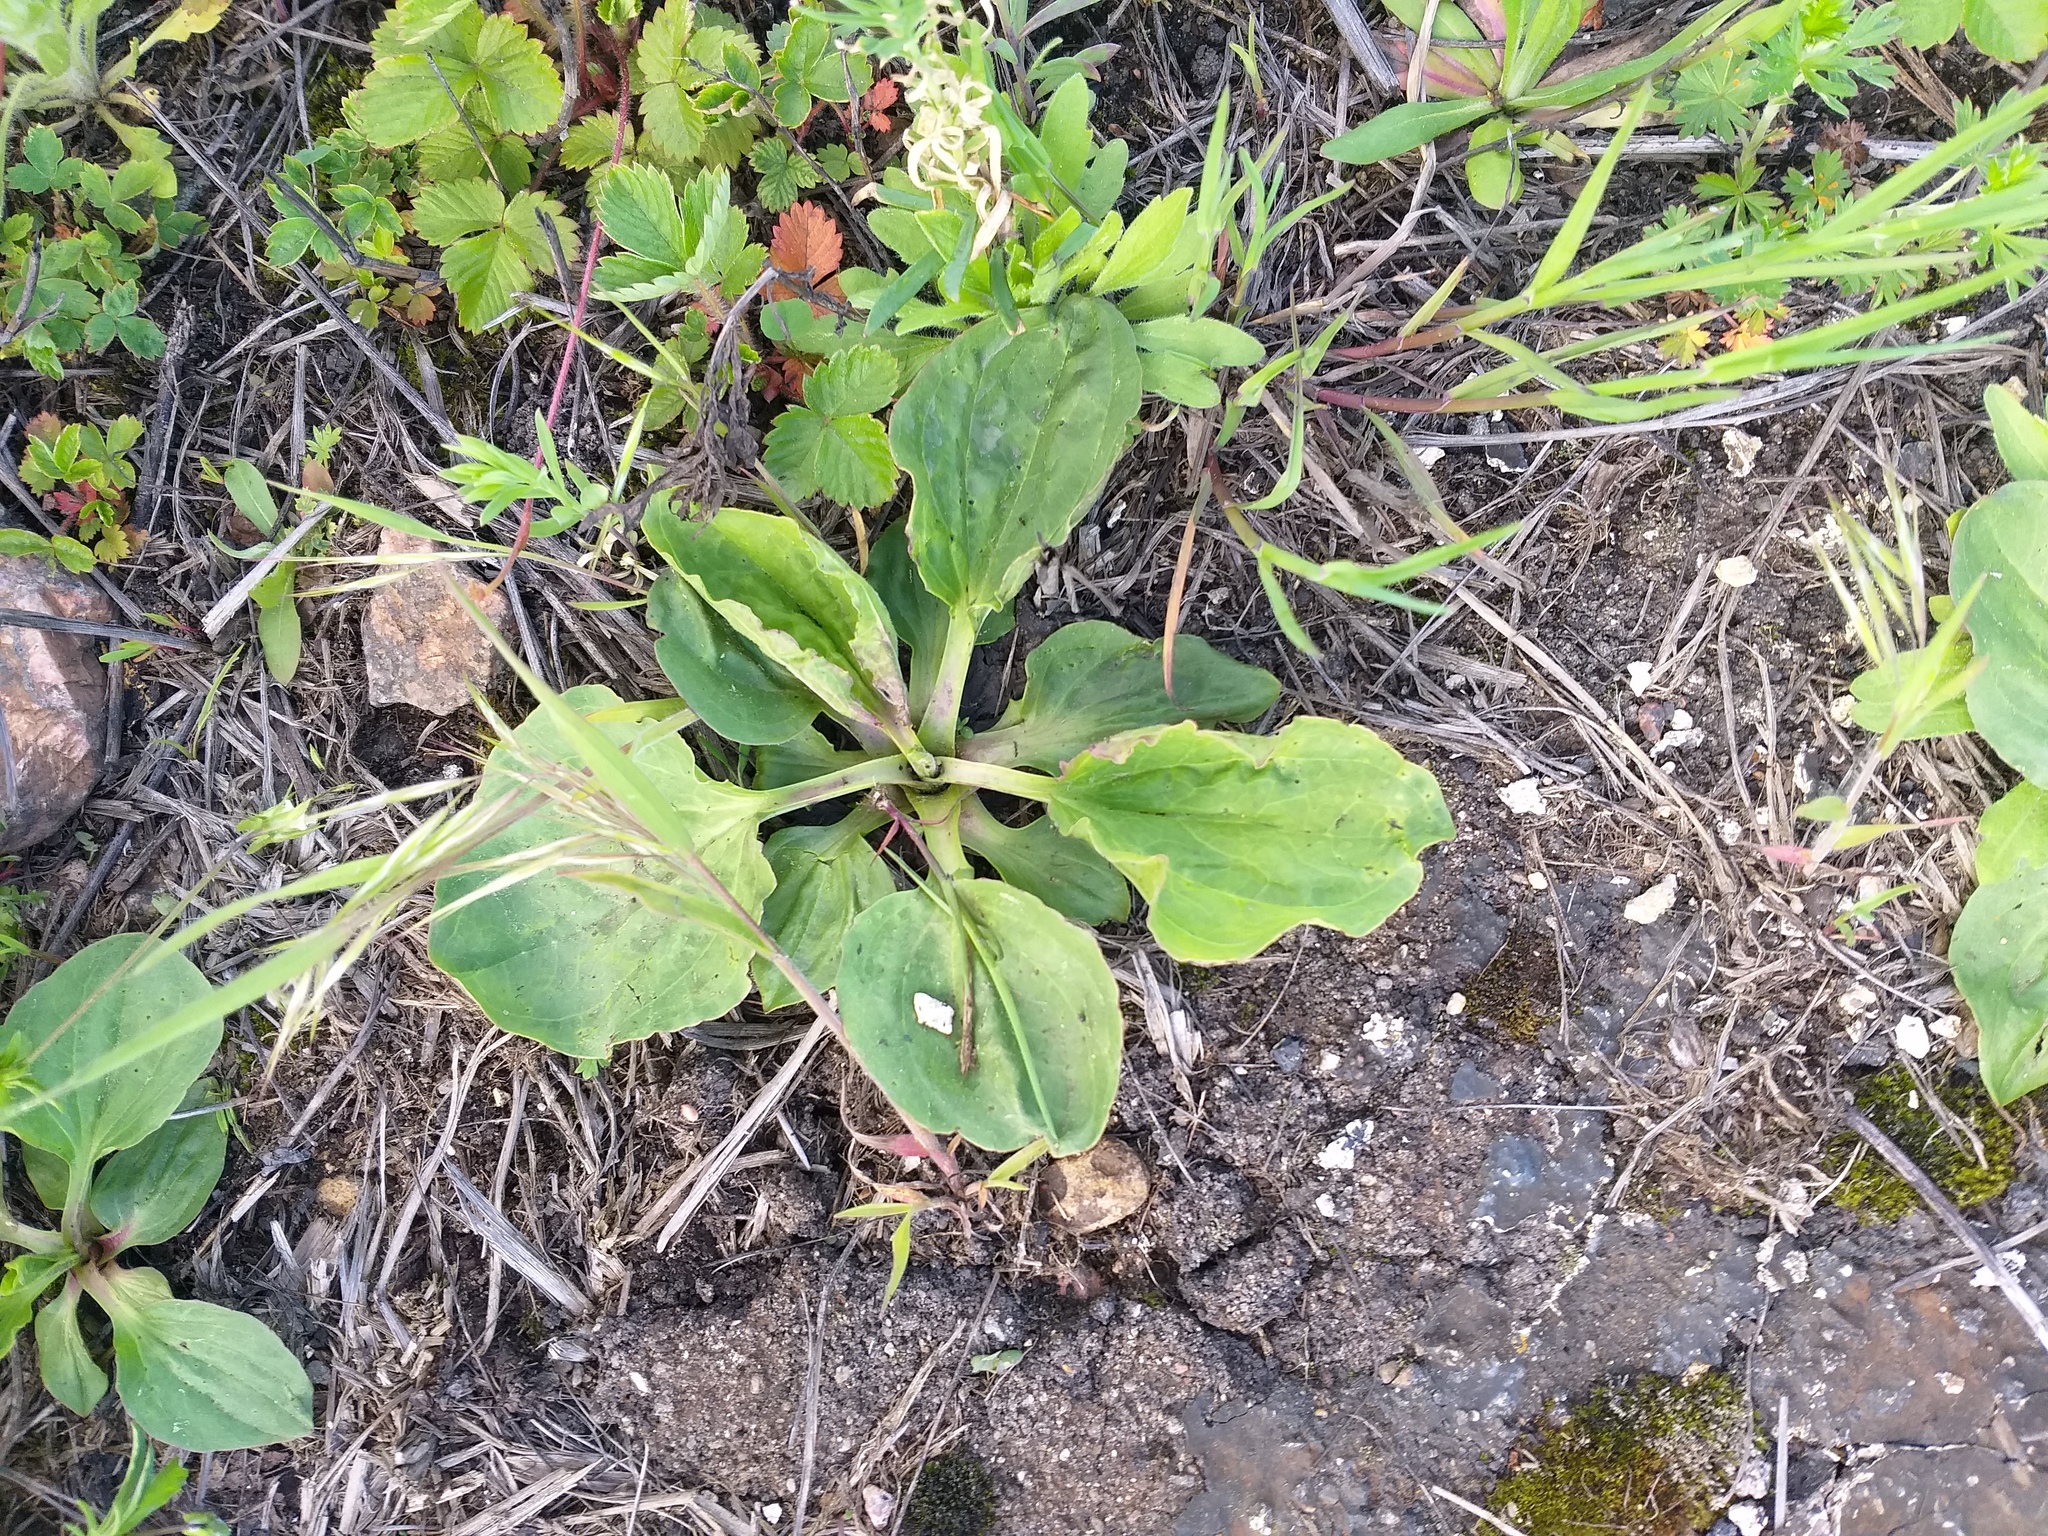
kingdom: Plantae
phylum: Tracheophyta
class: Magnoliopsida
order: Lamiales
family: Plantaginaceae
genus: Plantago
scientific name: Plantago major
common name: Common plantain
